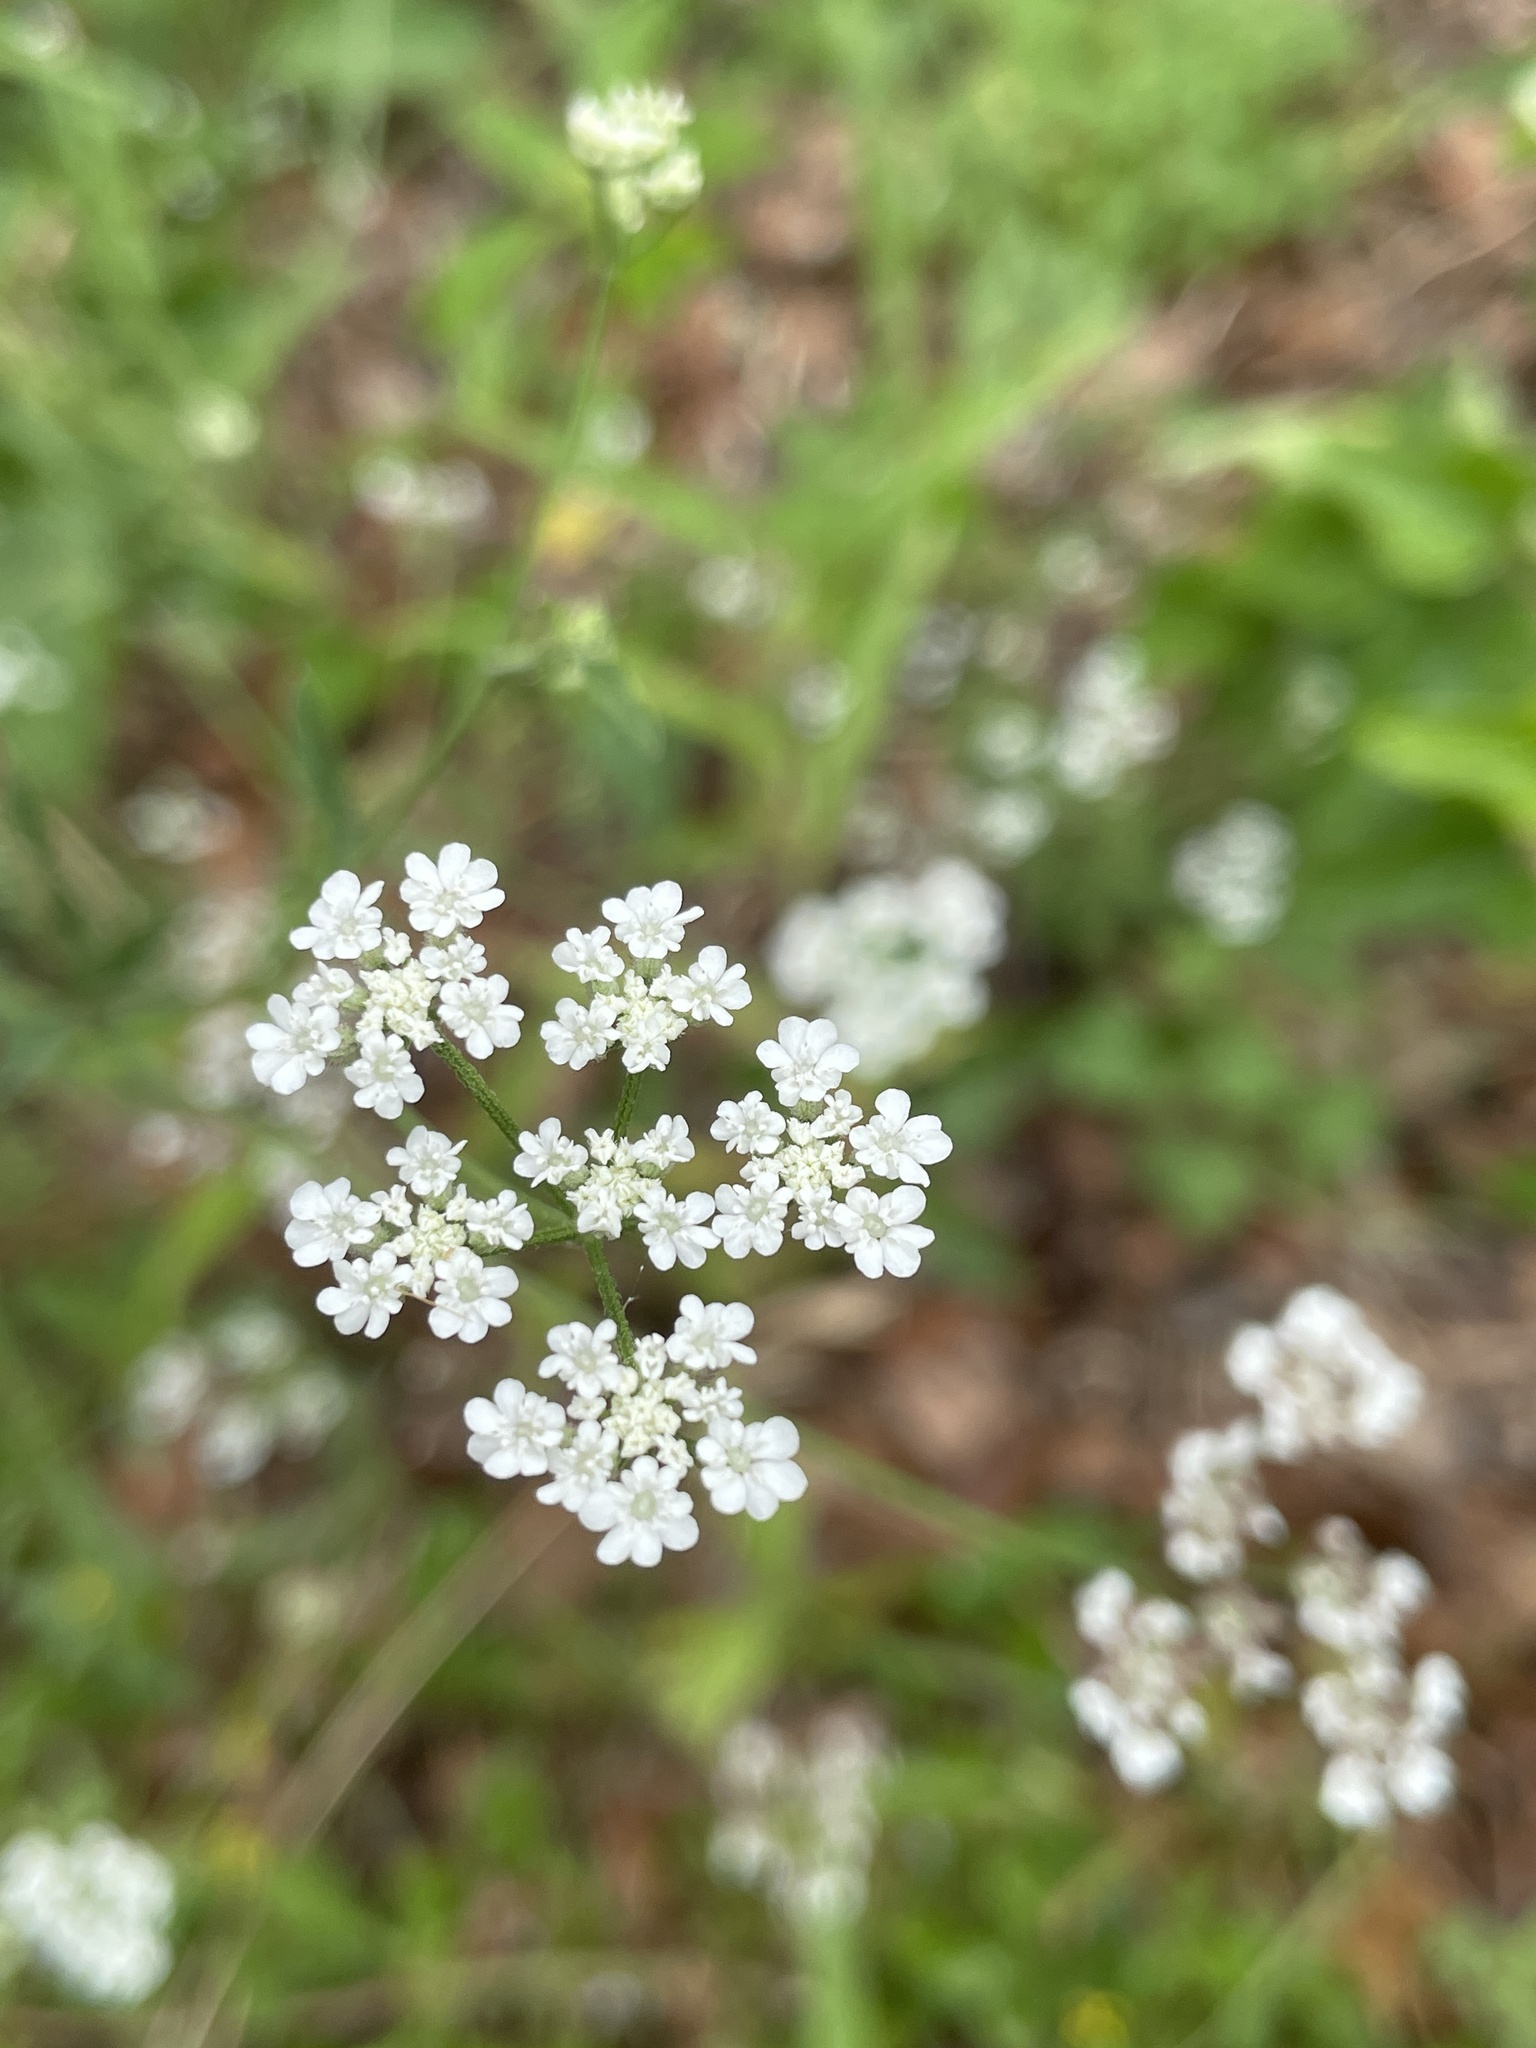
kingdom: Plantae
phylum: Tracheophyta
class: Magnoliopsida
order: Apiales
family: Apiaceae
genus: Torilis
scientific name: Torilis arvensis
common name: Spreading hedge-parsley
